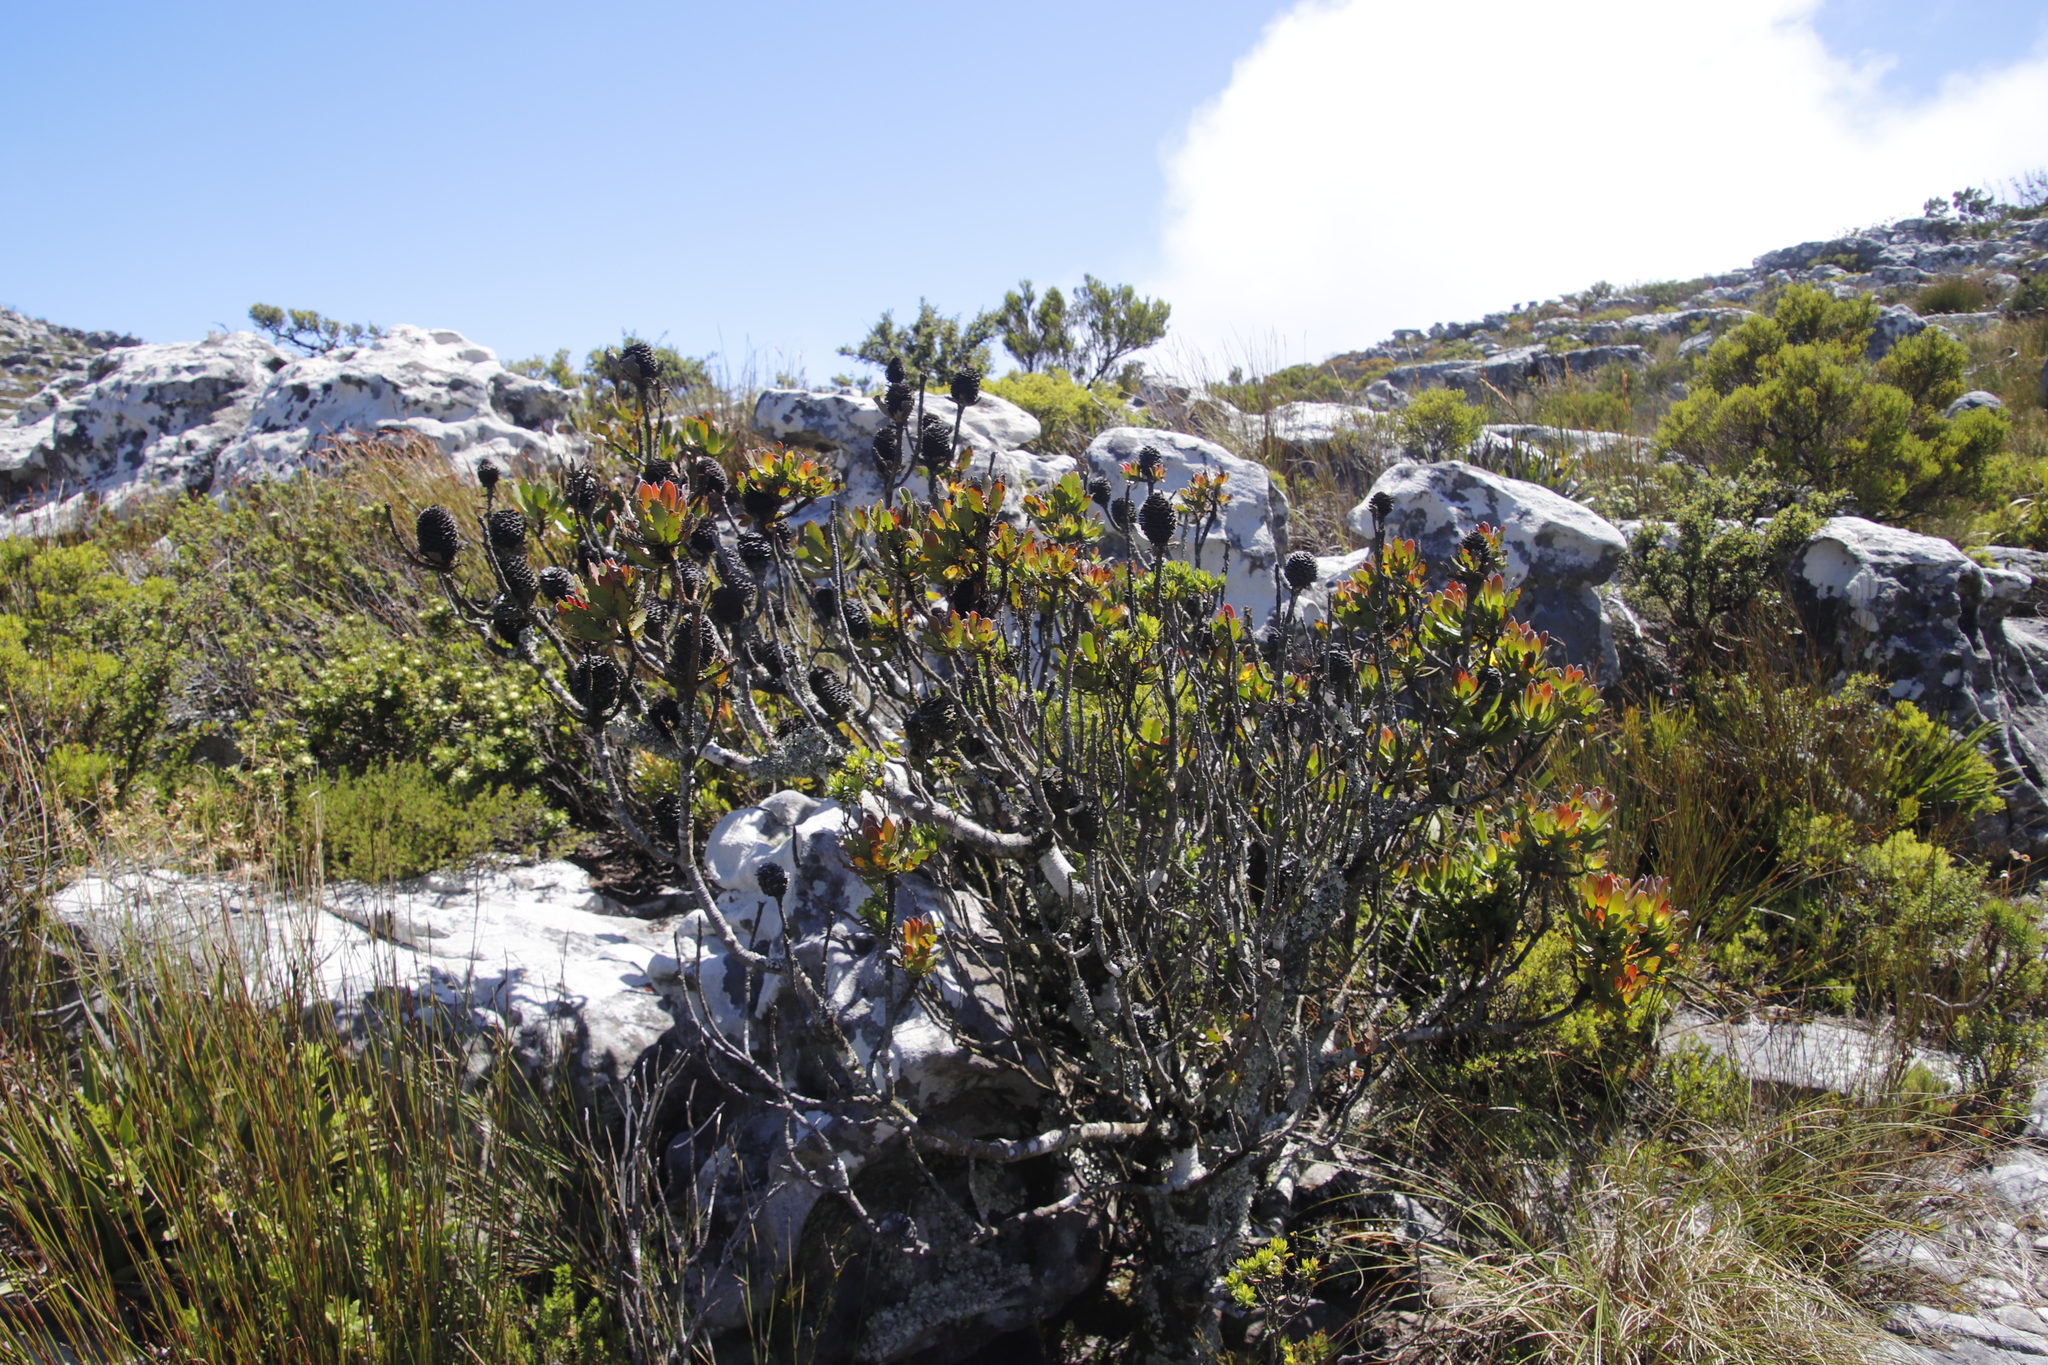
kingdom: Plantae
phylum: Tracheophyta
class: Magnoliopsida
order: Proteales
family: Proteaceae
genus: Leucadendron
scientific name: Leucadendron strobilinum
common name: Mountain rose
